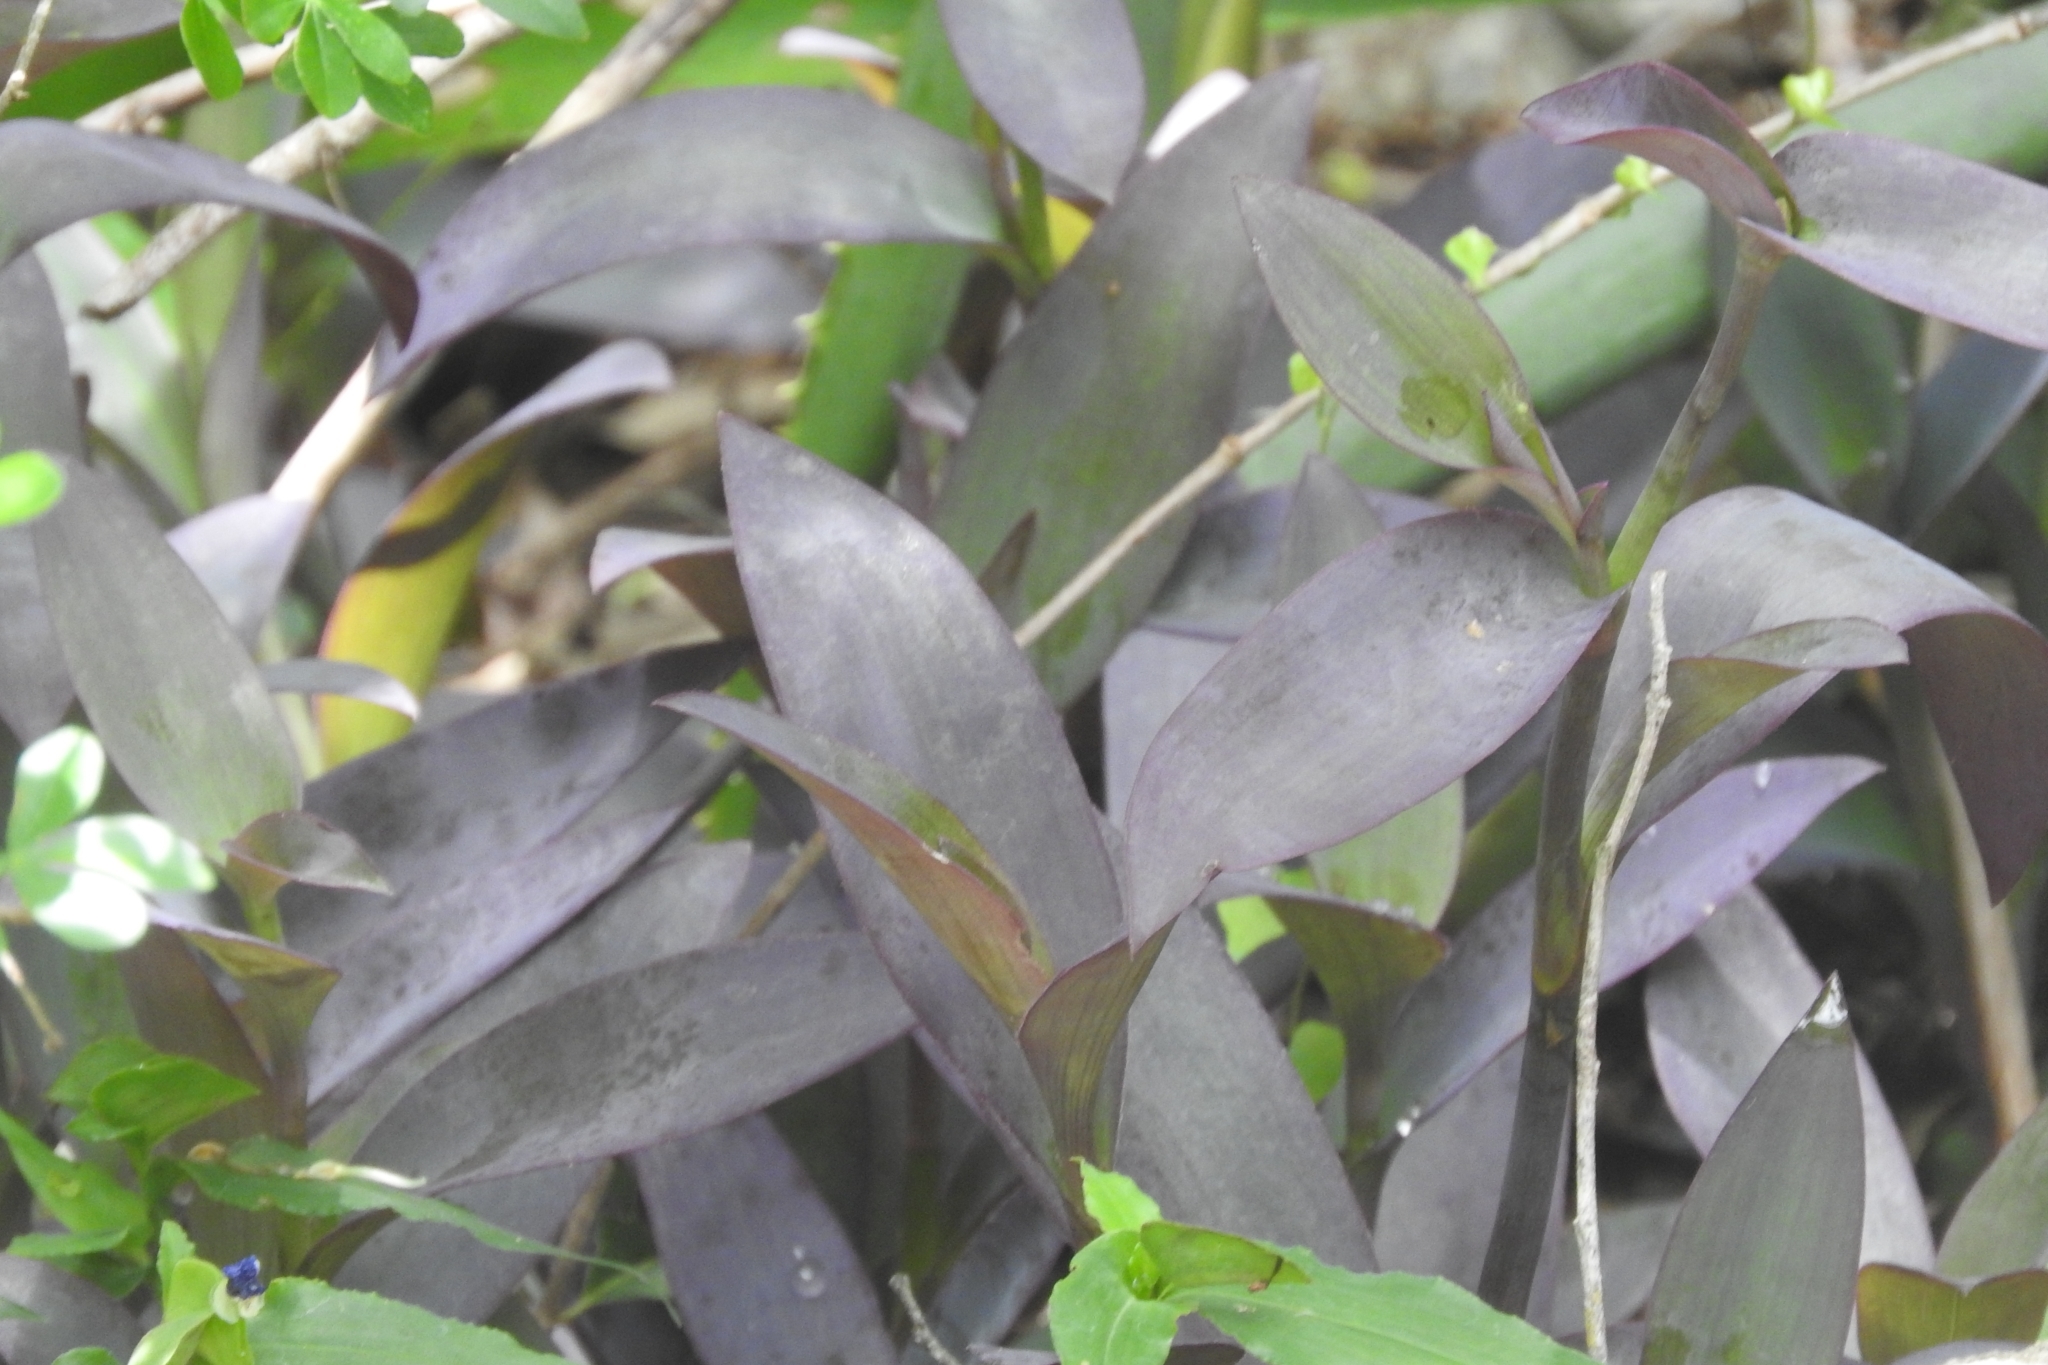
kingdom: Plantae
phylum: Tracheophyta
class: Liliopsida
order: Commelinales
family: Commelinaceae
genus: Tradescantia
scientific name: Tradescantia pallida
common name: Purpleheart
